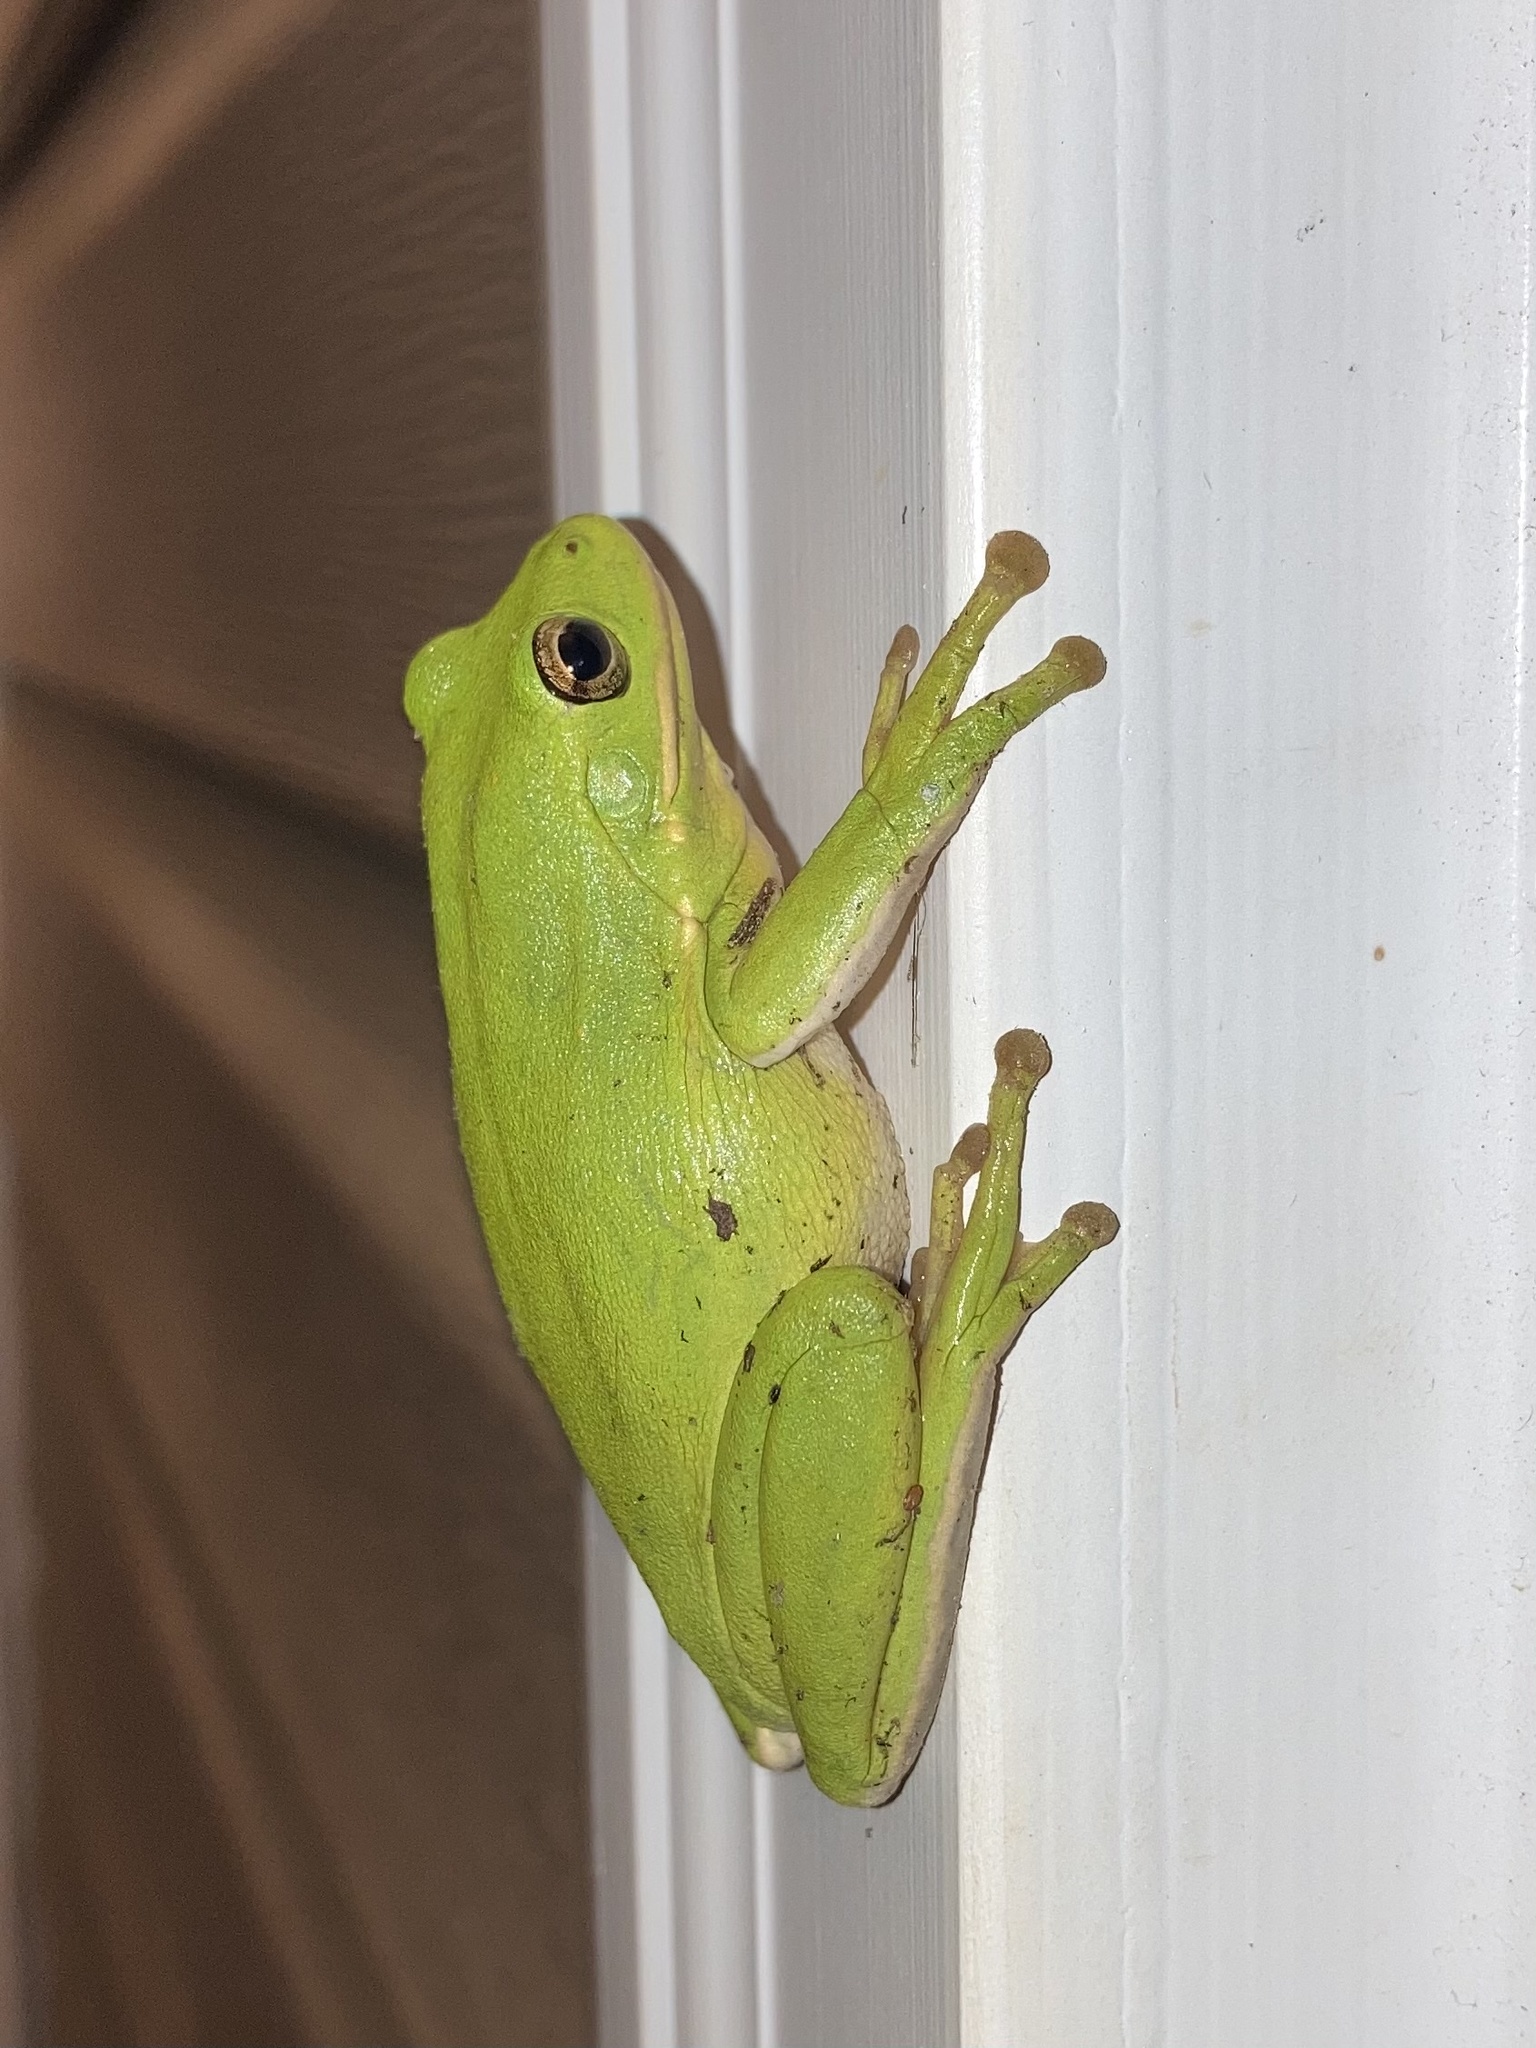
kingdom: Animalia
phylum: Chordata
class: Amphibia
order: Anura
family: Hylidae
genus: Dryophytes
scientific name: Dryophytes cinereus
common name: Green treefrog
